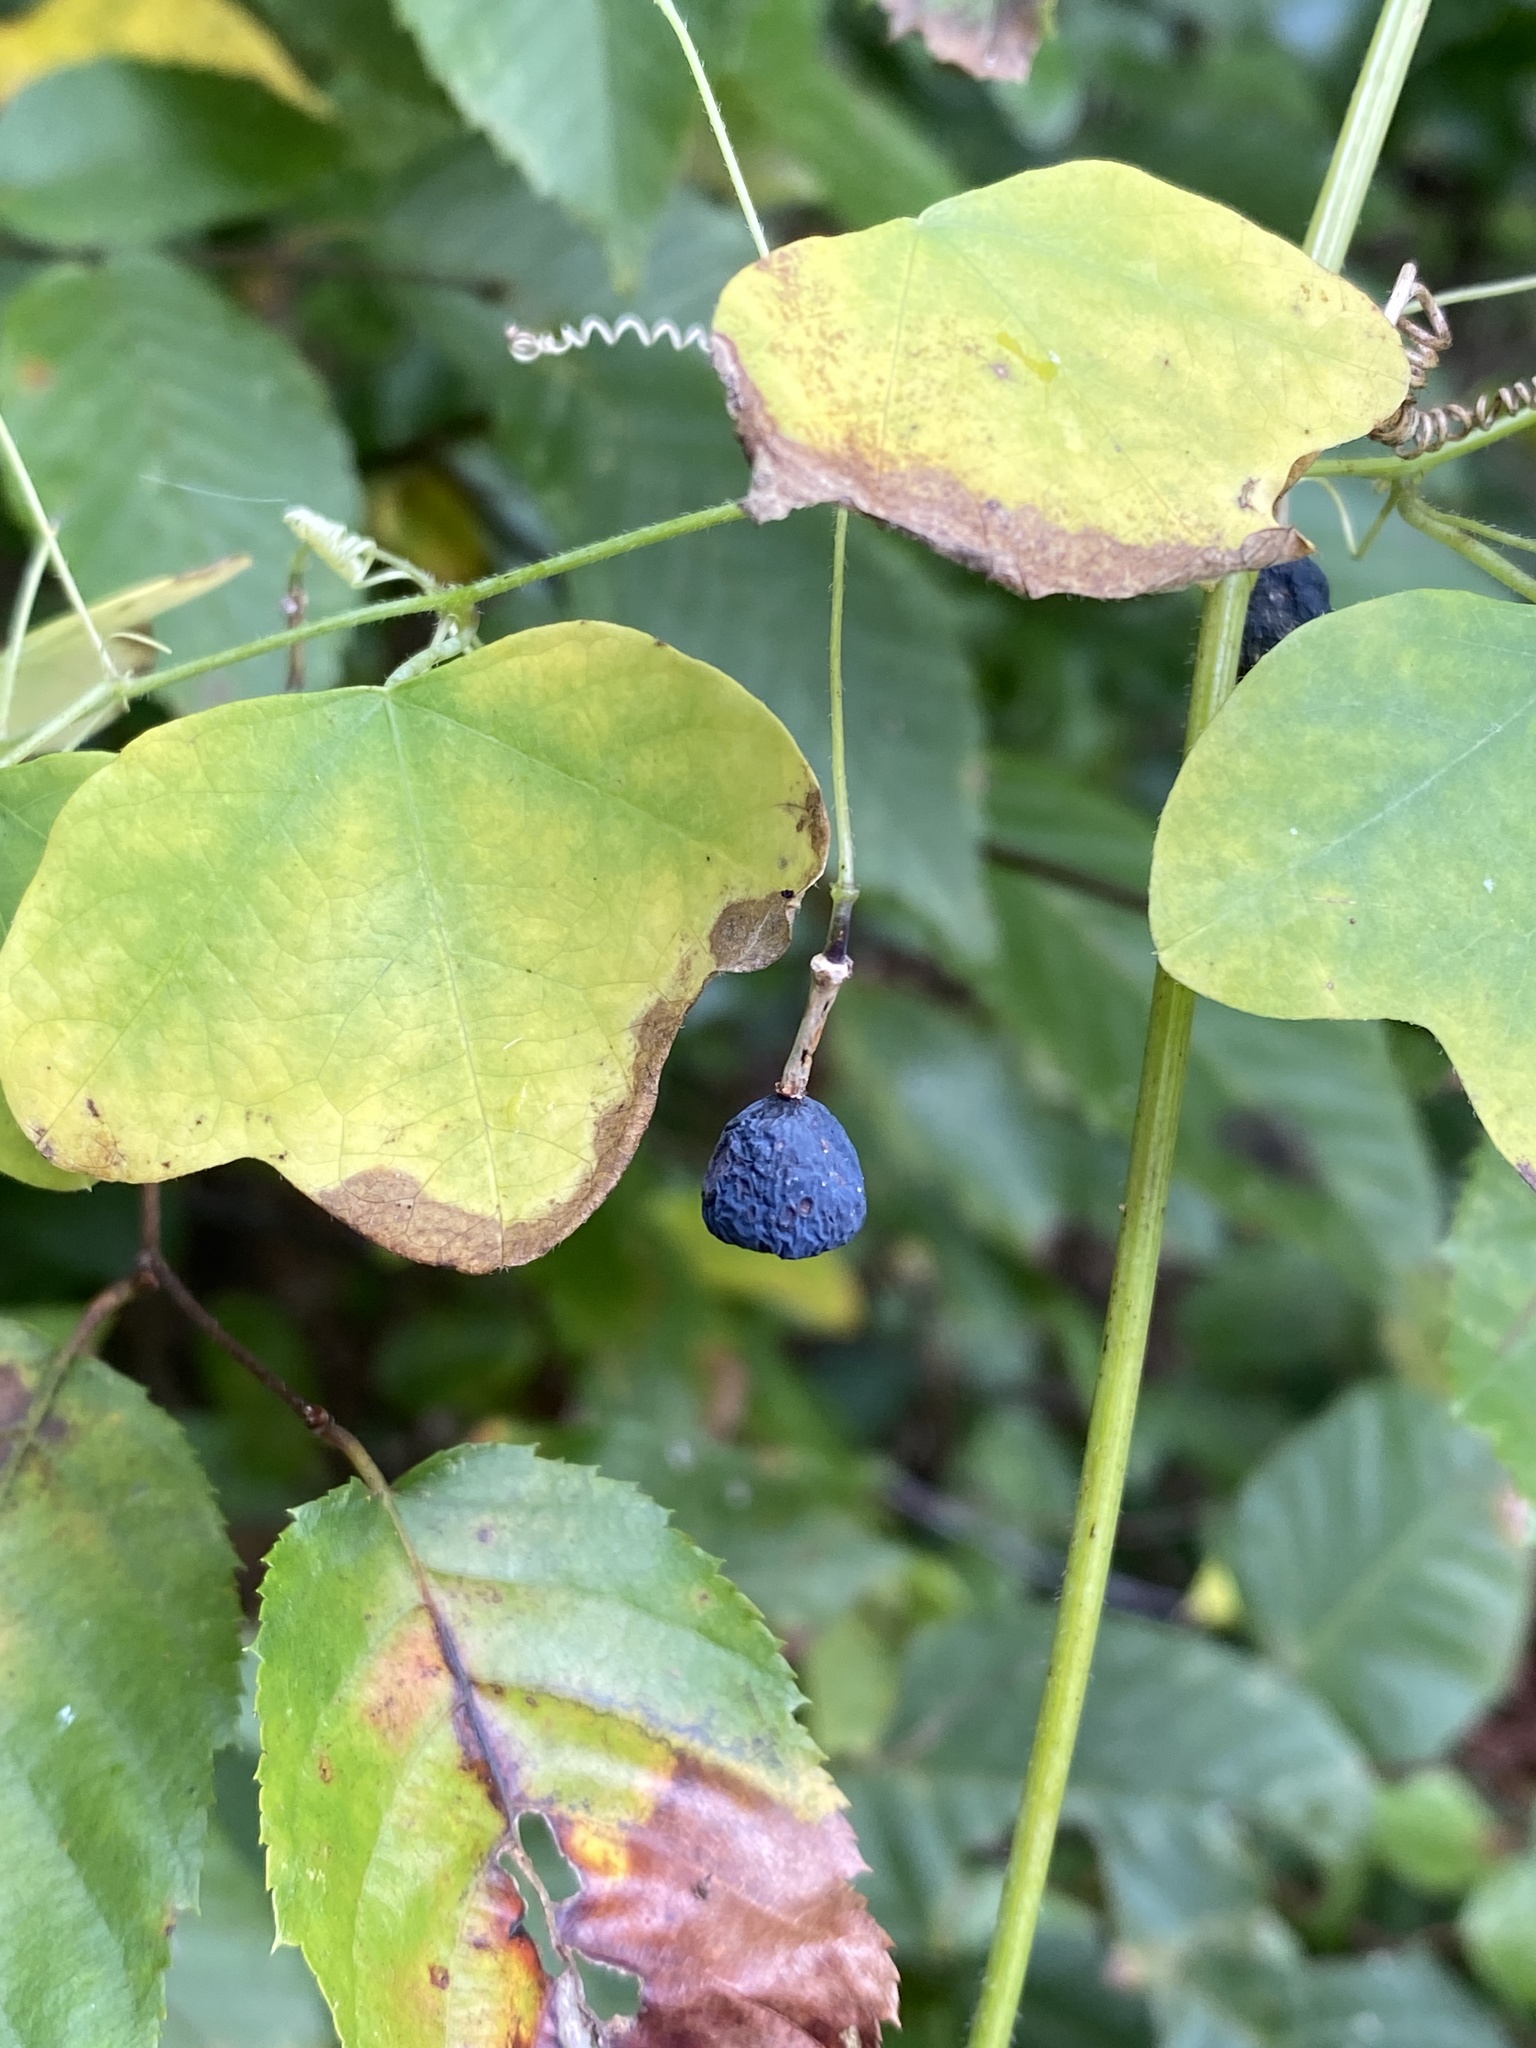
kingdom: Plantae
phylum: Tracheophyta
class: Magnoliopsida
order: Malpighiales
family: Passifloraceae
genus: Passiflora
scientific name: Passiflora lutea
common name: Yellow passionflower
